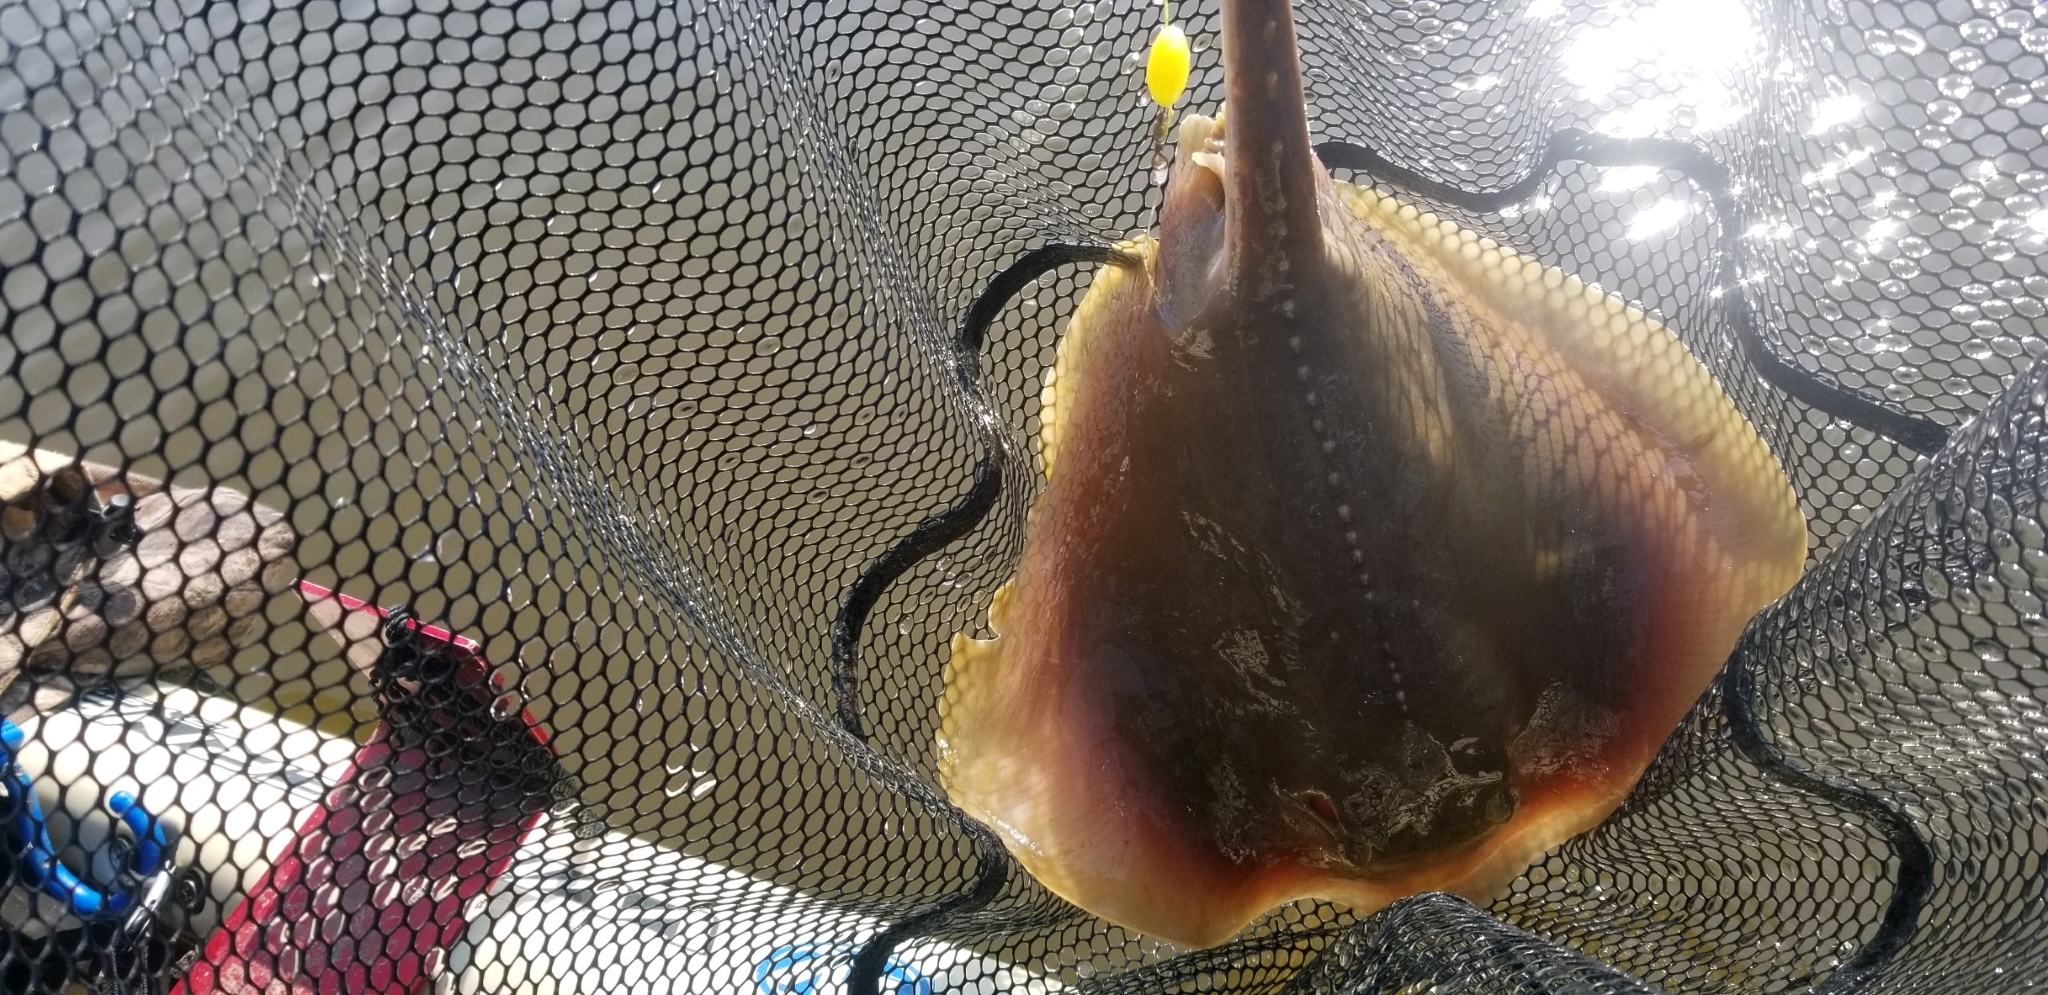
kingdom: Animalia
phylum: Chordata
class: Elasmobranchii
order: Myliobatiformes
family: Dasyatidae
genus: Hypanus
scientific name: Hypanus sabinus
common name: Atlantic stingray
